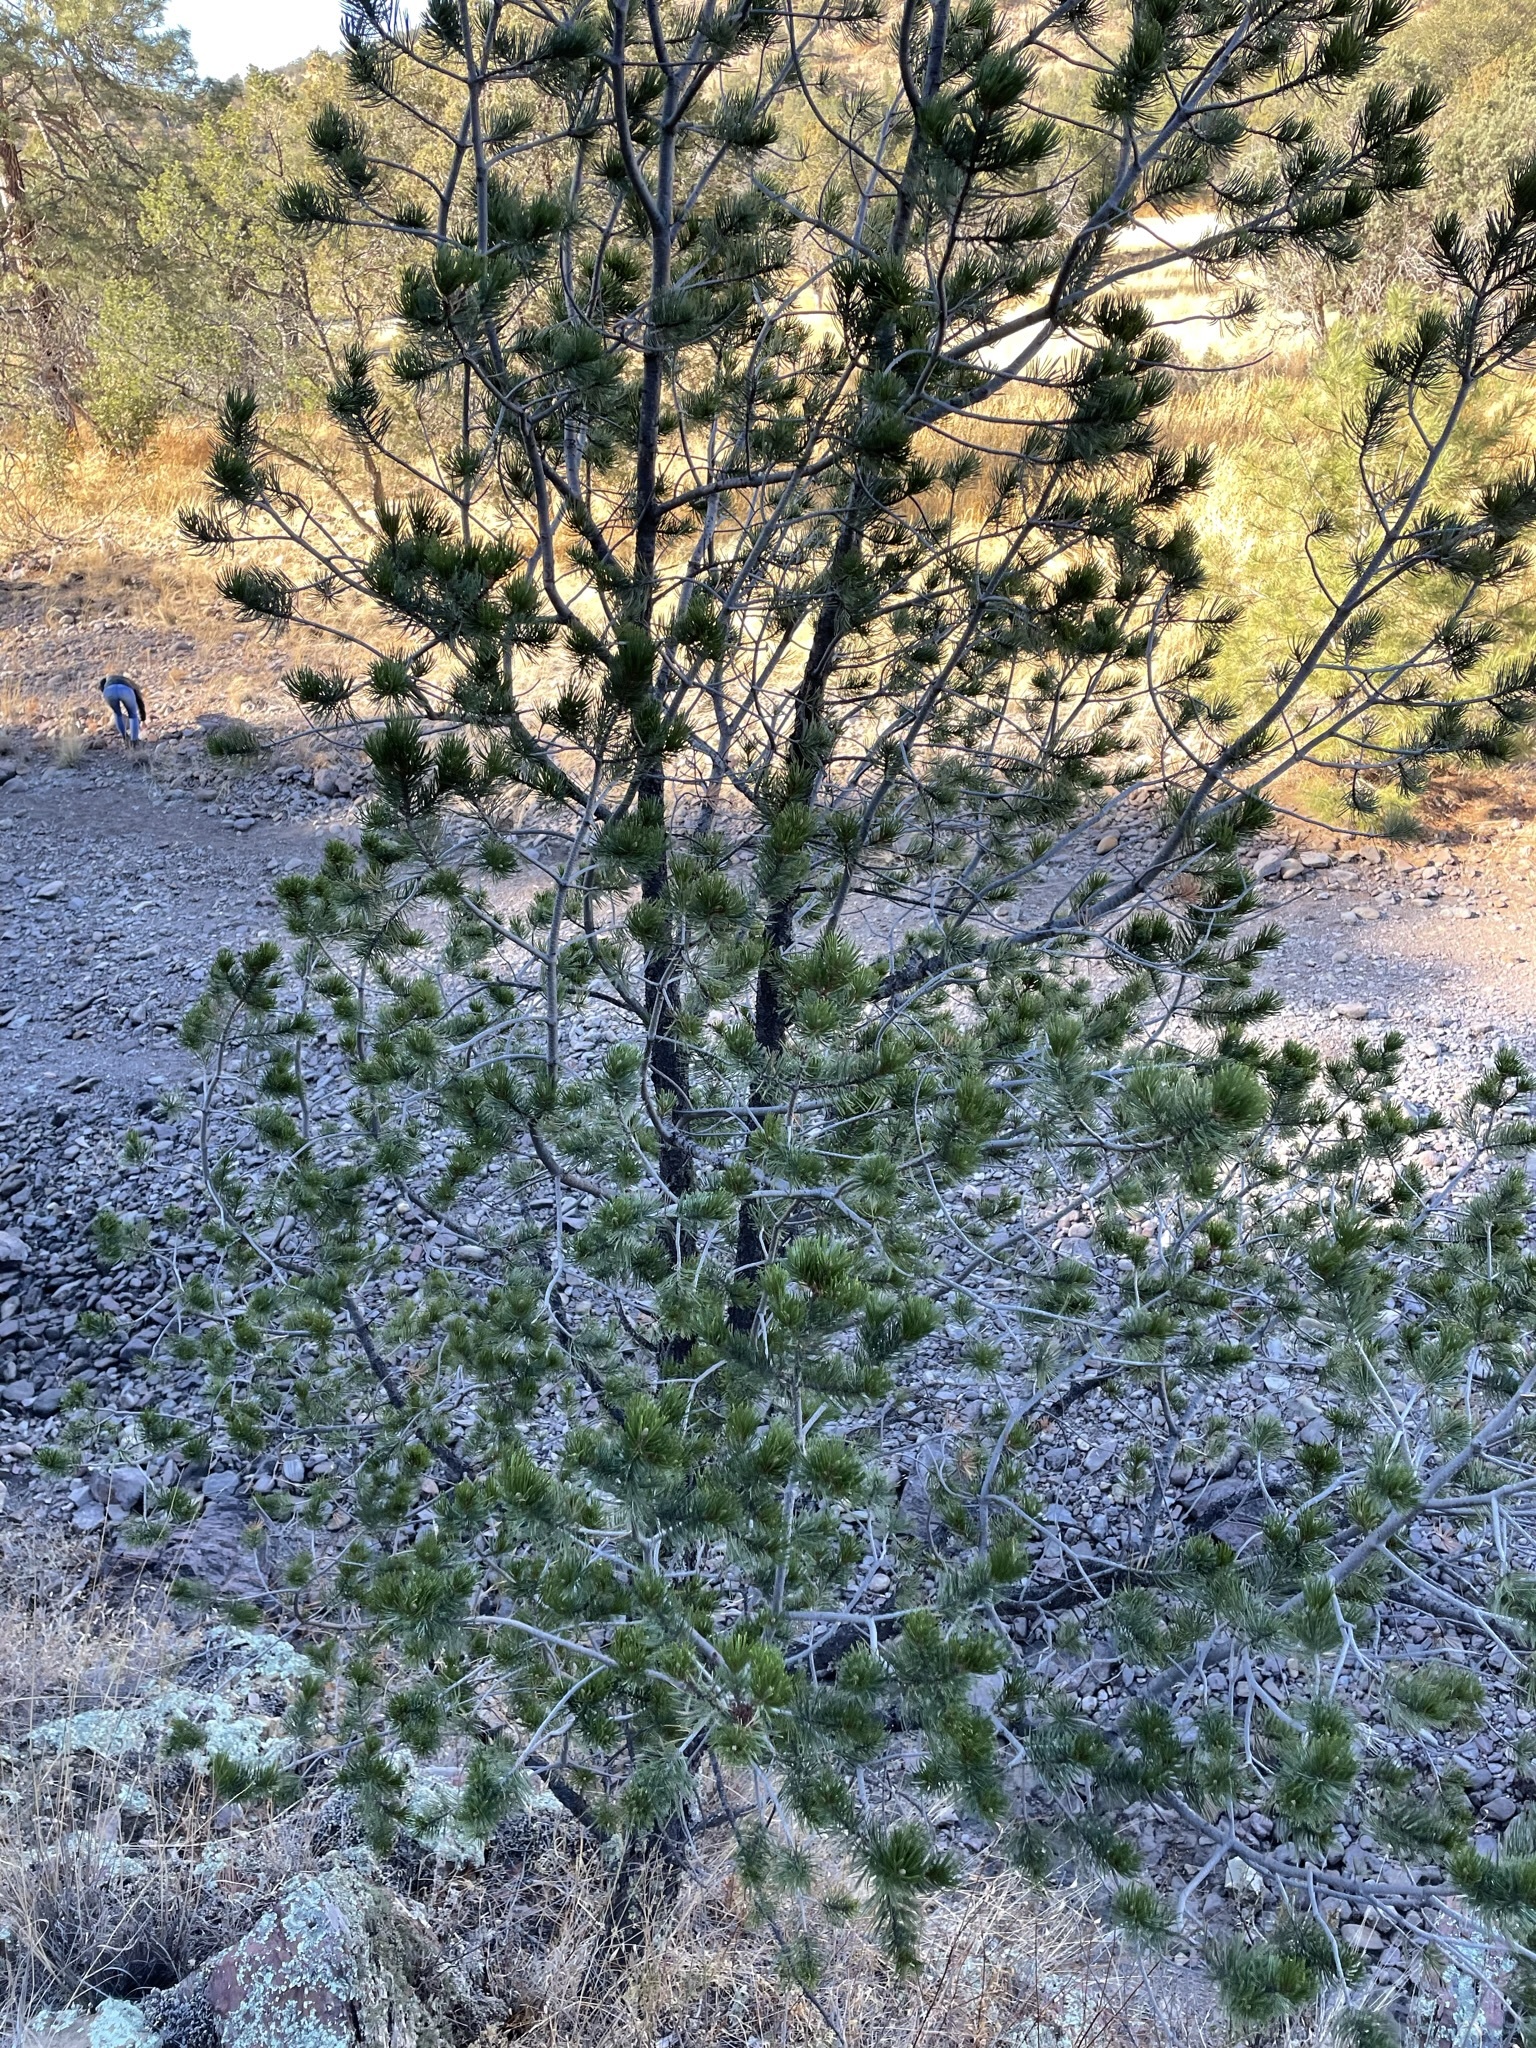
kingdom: Plantae
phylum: Tracheophyta
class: Pinopsida
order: Pinales
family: Pinaceae
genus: Pinus
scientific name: Pinus cembroides
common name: Mexican nut pine
